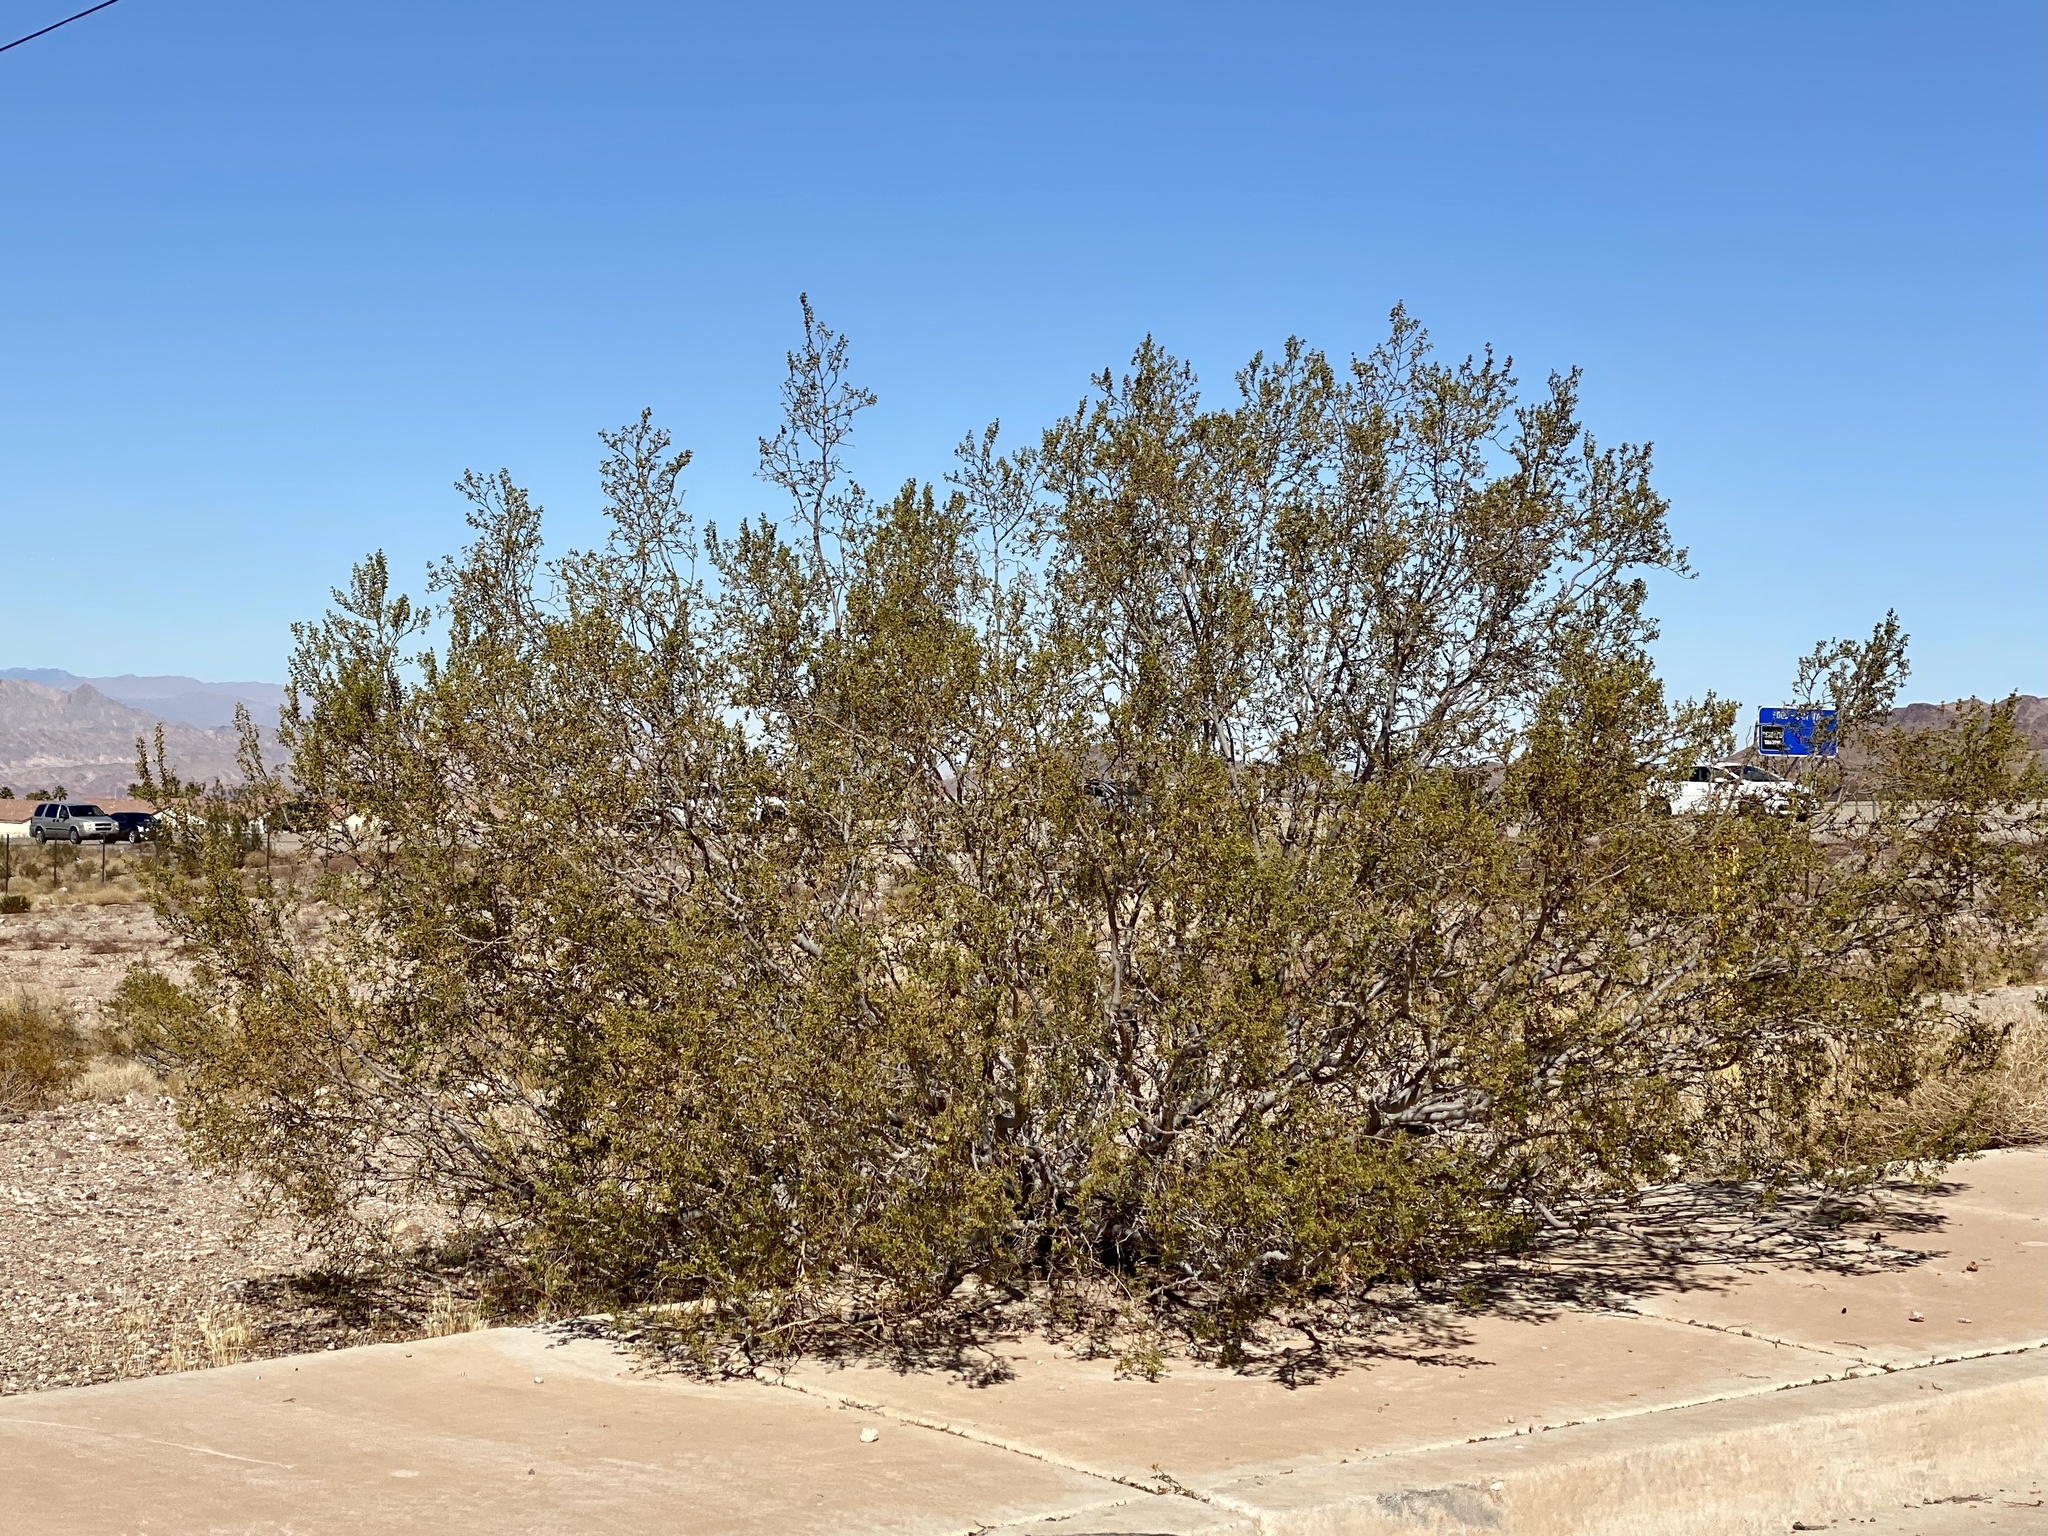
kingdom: Plantae
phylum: Tracheophyta
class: Magnoliopsida
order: Zygophyllales
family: Zygophyllaceae
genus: Larrea
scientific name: Larrea tridentata
